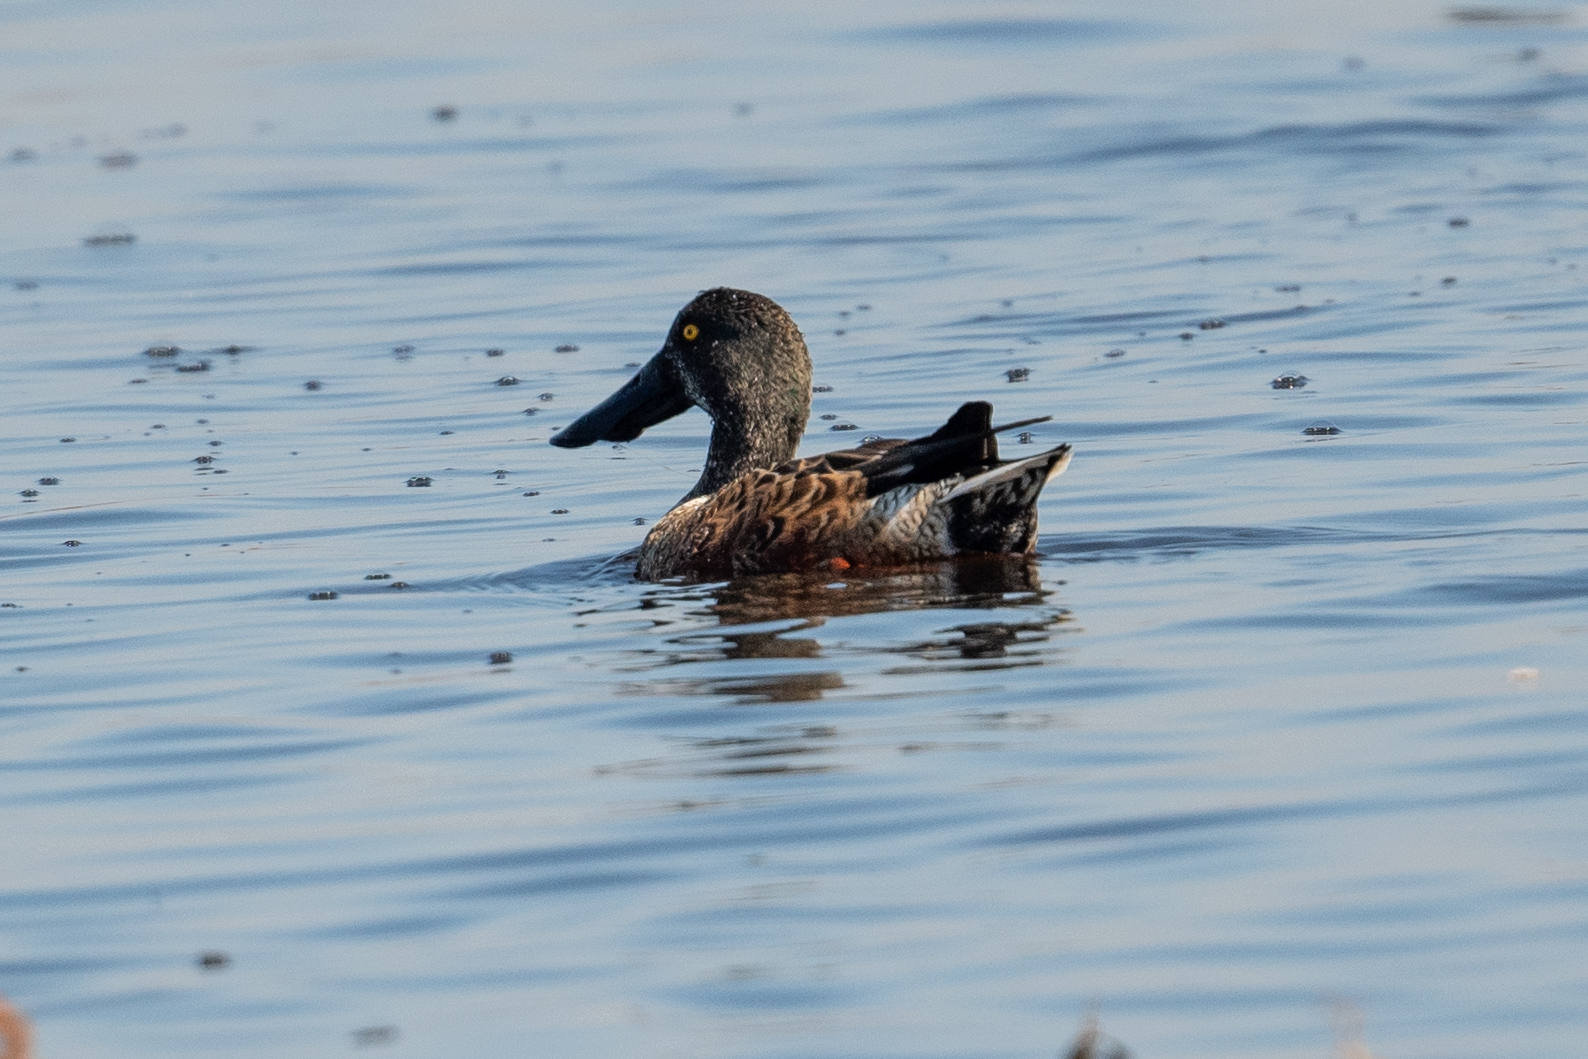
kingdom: Animalia
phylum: Chordata
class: Aves
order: Anseriformes
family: Anatidae
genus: Spatula
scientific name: Spatula clypeata
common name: Northern shoveler
